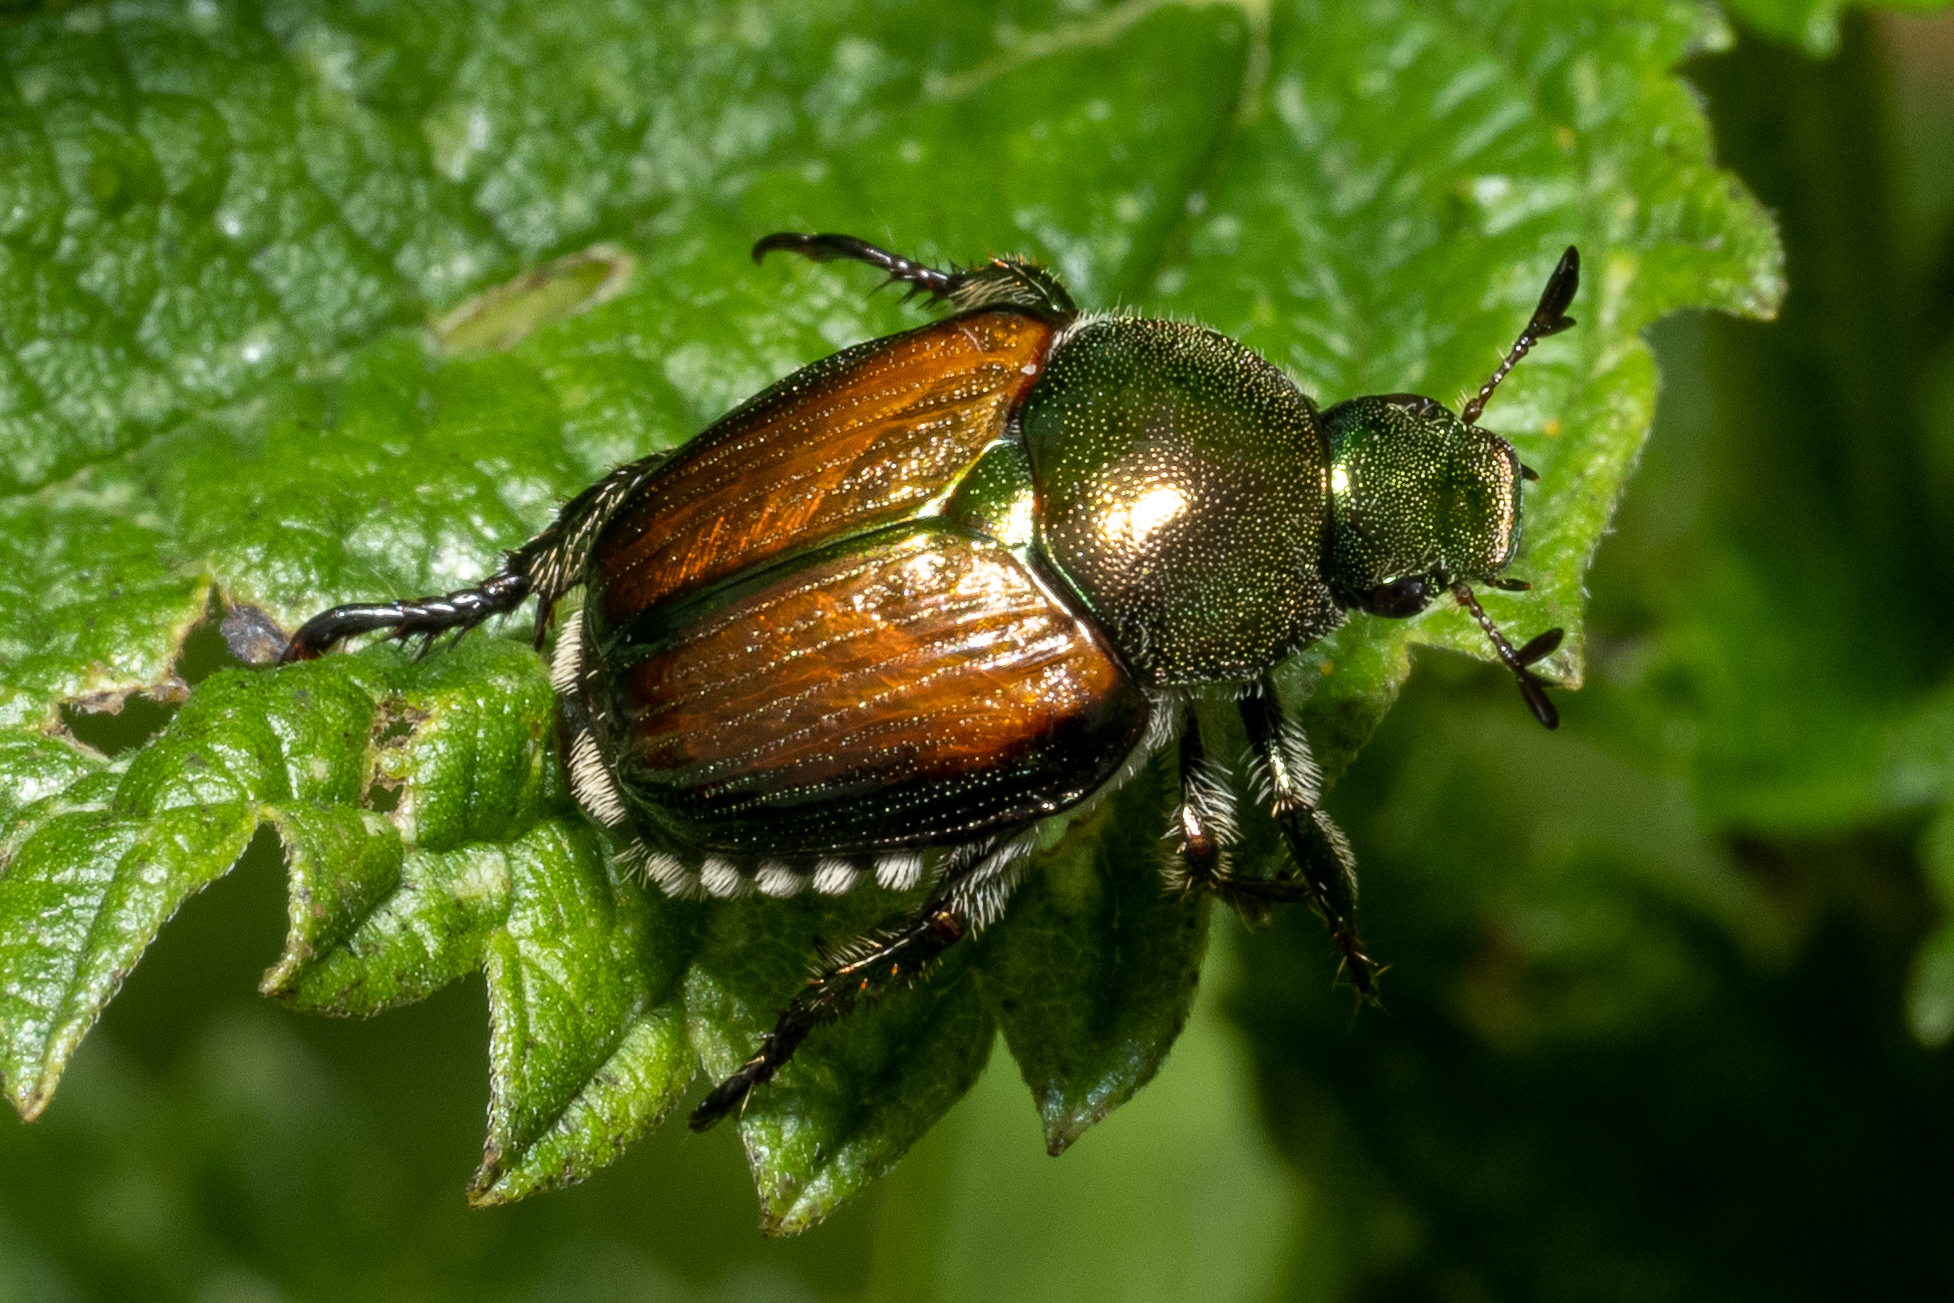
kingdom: Animalia
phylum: Arthropoda
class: Insecta
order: Coleoptera
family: Scarabaeidae
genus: Popillia
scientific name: Popillia japonica
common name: Japanese beetle
